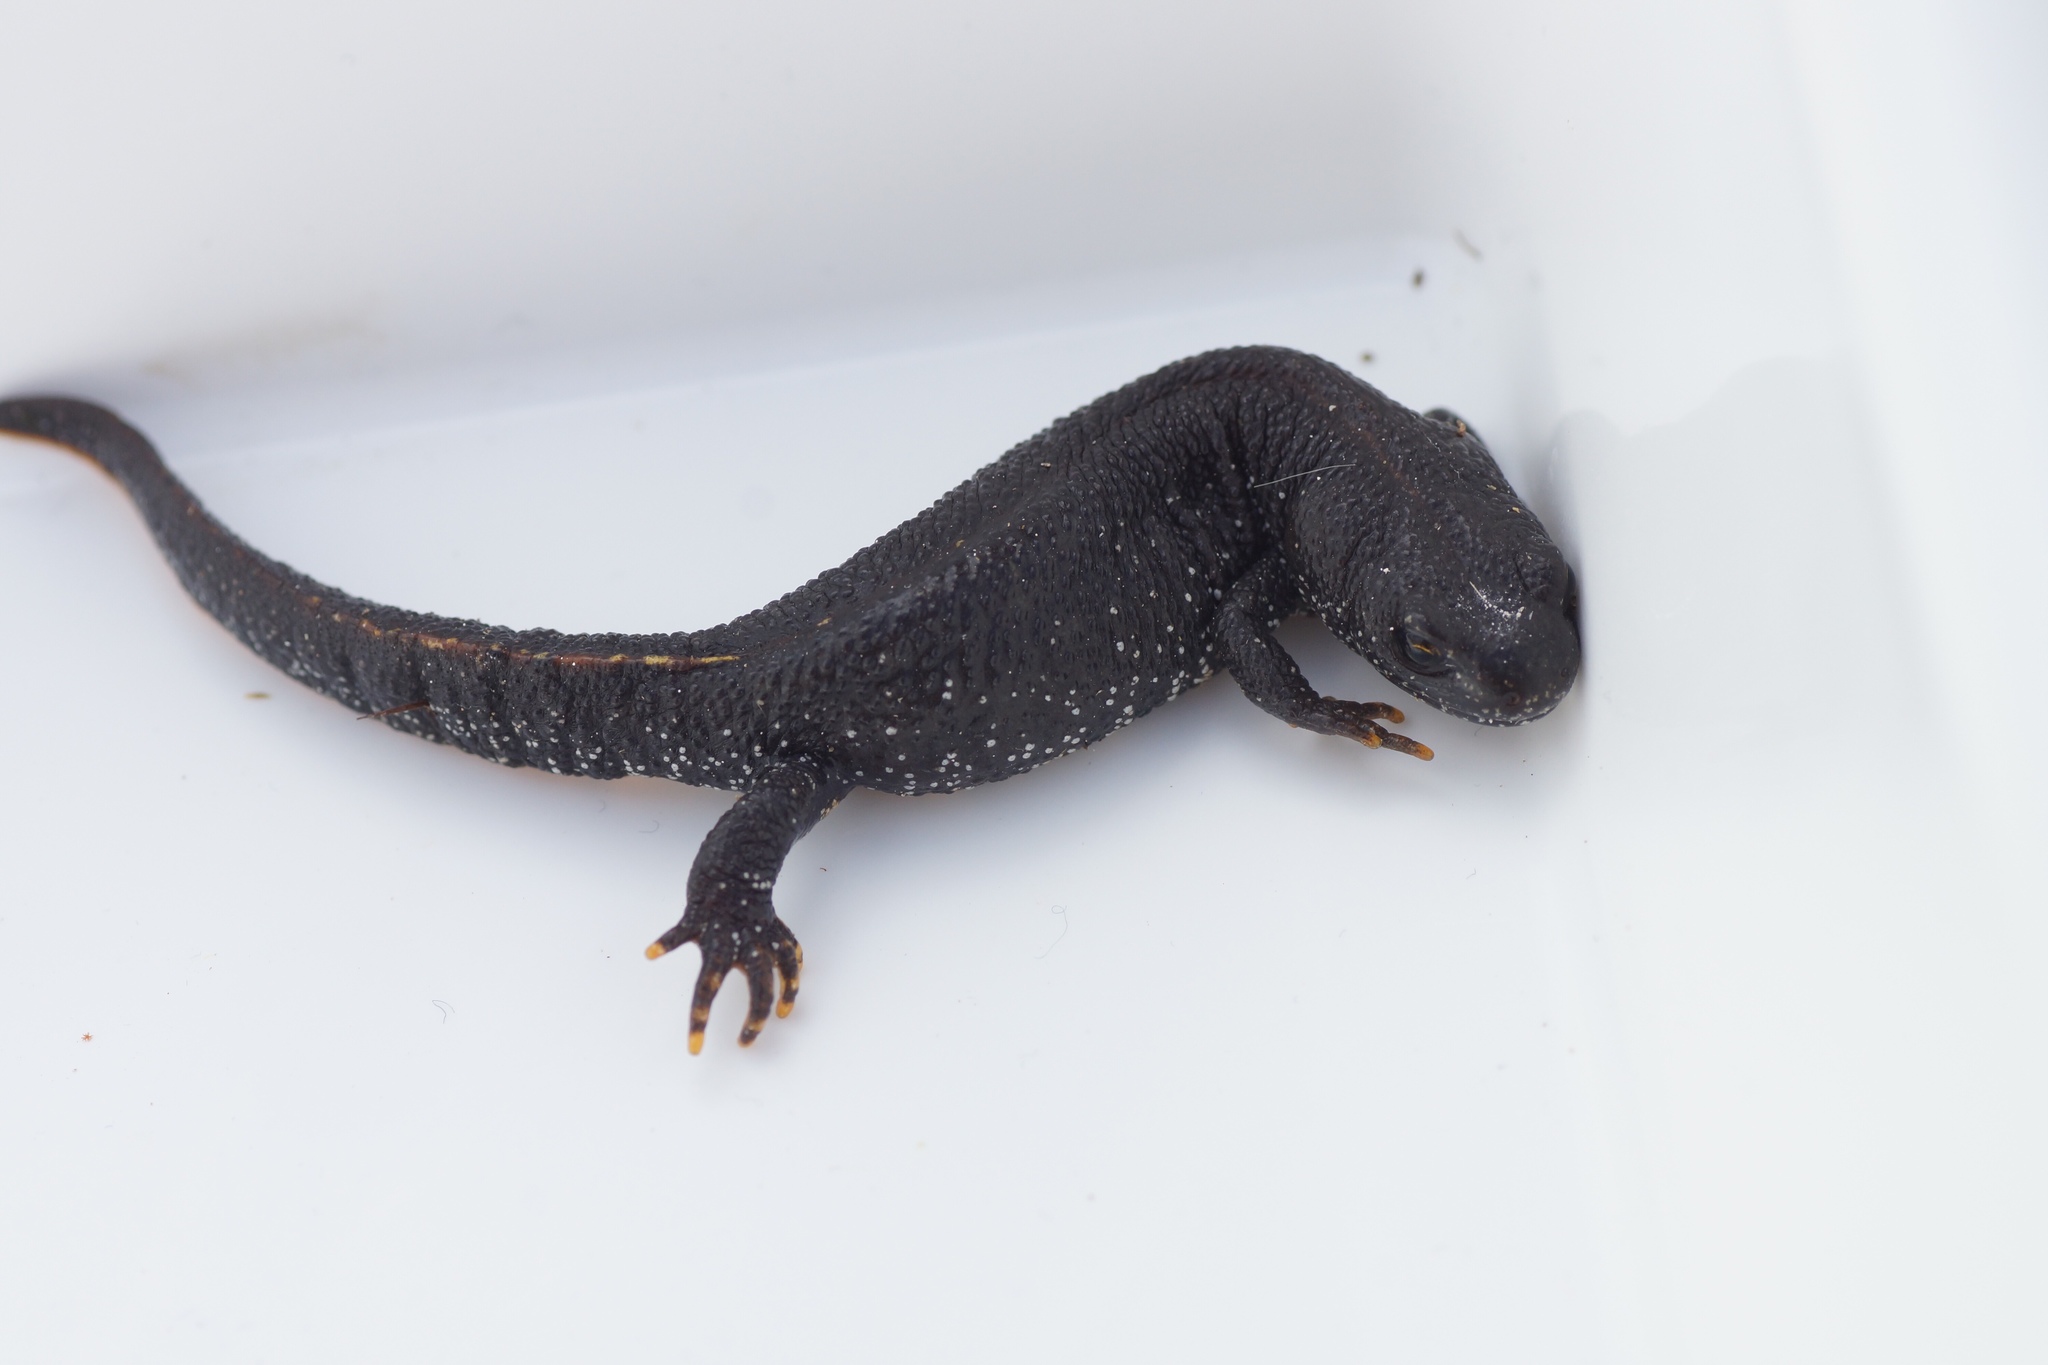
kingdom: Animalia
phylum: Chordata
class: Amphibia
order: Caudata
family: Salamandridae
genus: Triturus
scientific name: Triturus cristatus
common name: Crested newt
